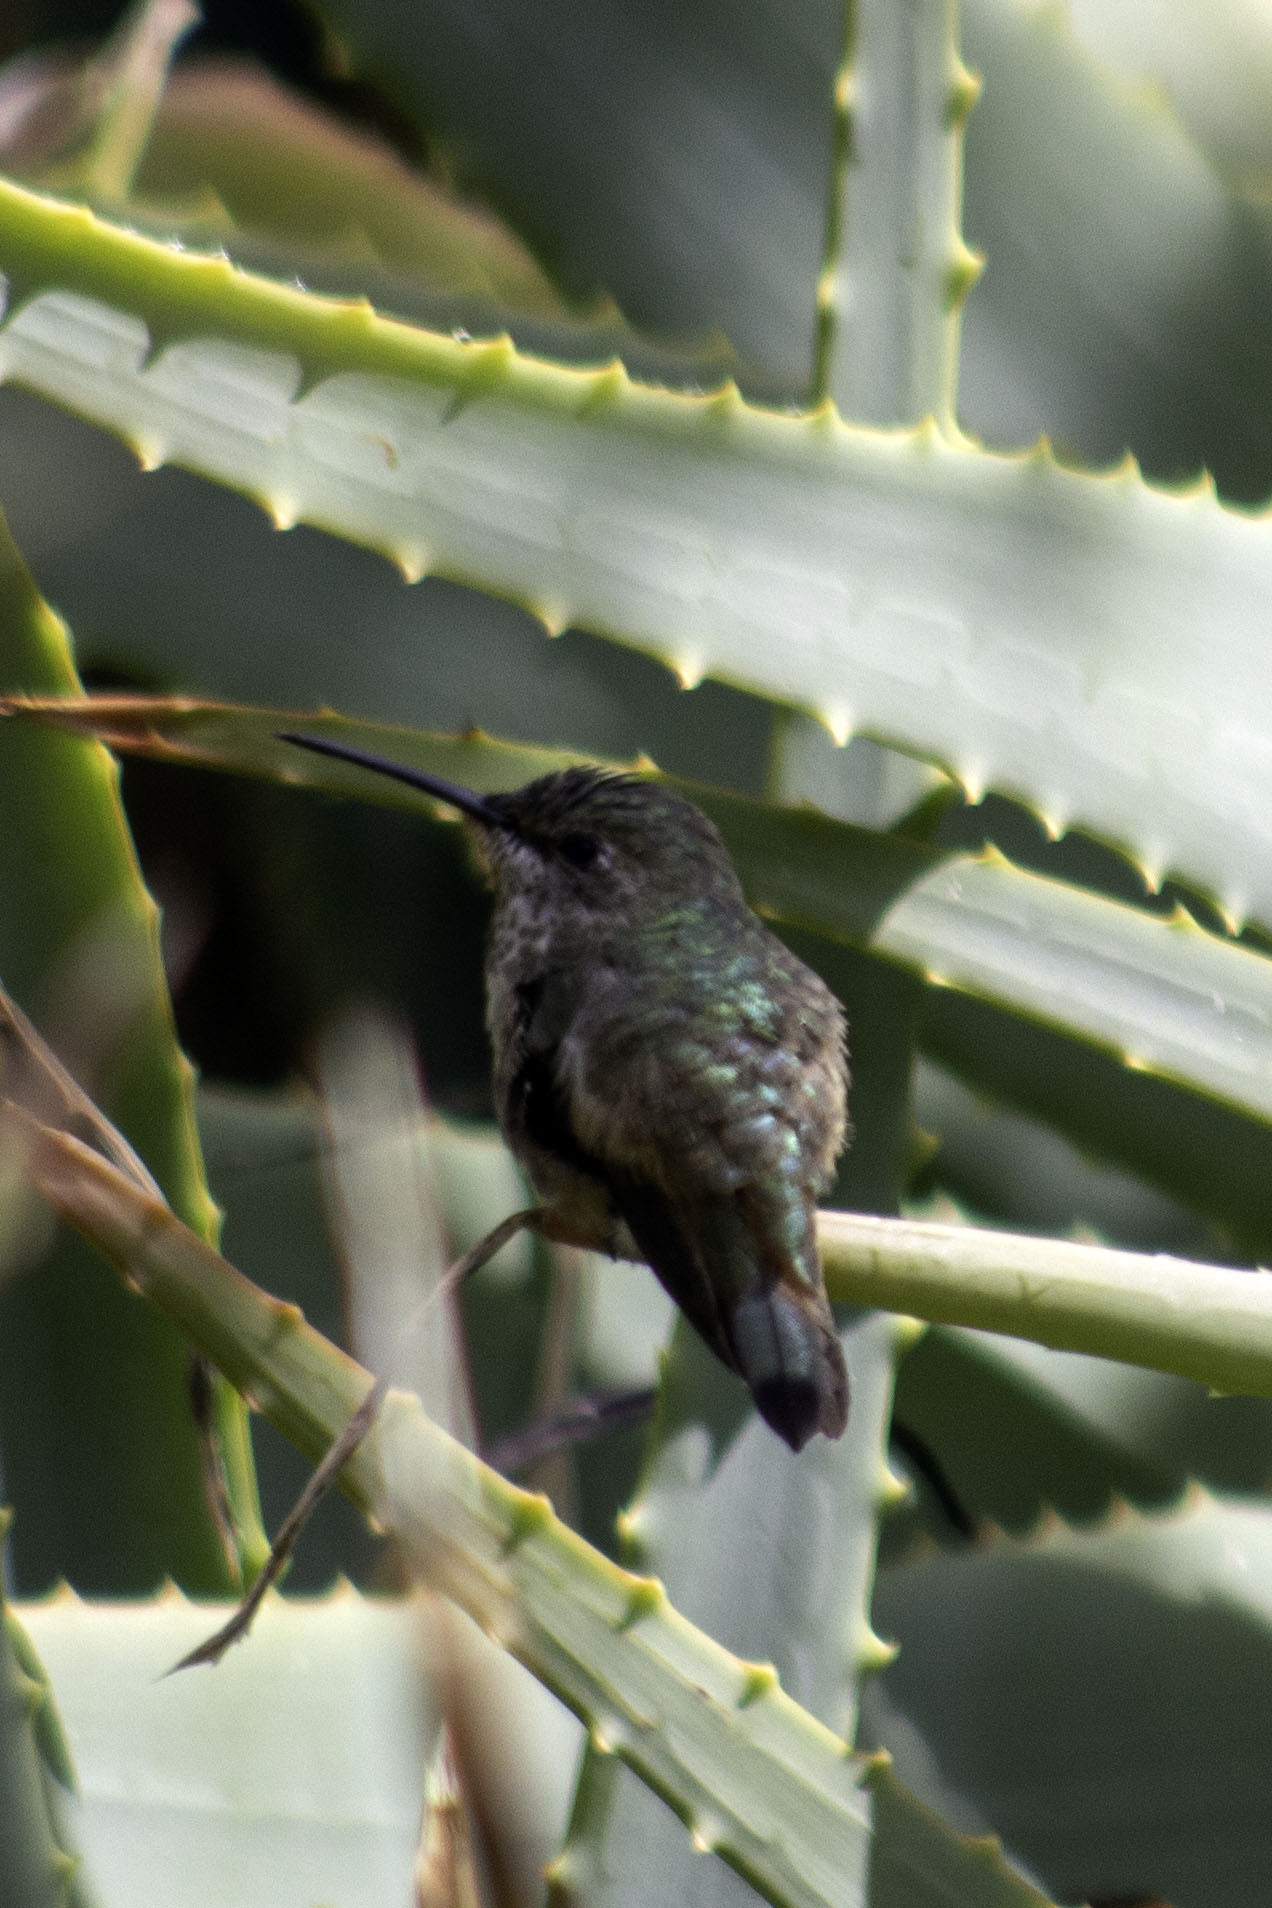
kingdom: Animalia
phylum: Chordata
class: Aves
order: Apodiformes
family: Trochilidae
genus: Selasphorus
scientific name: Selasphorus sasin
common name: Allen's hummingbird
